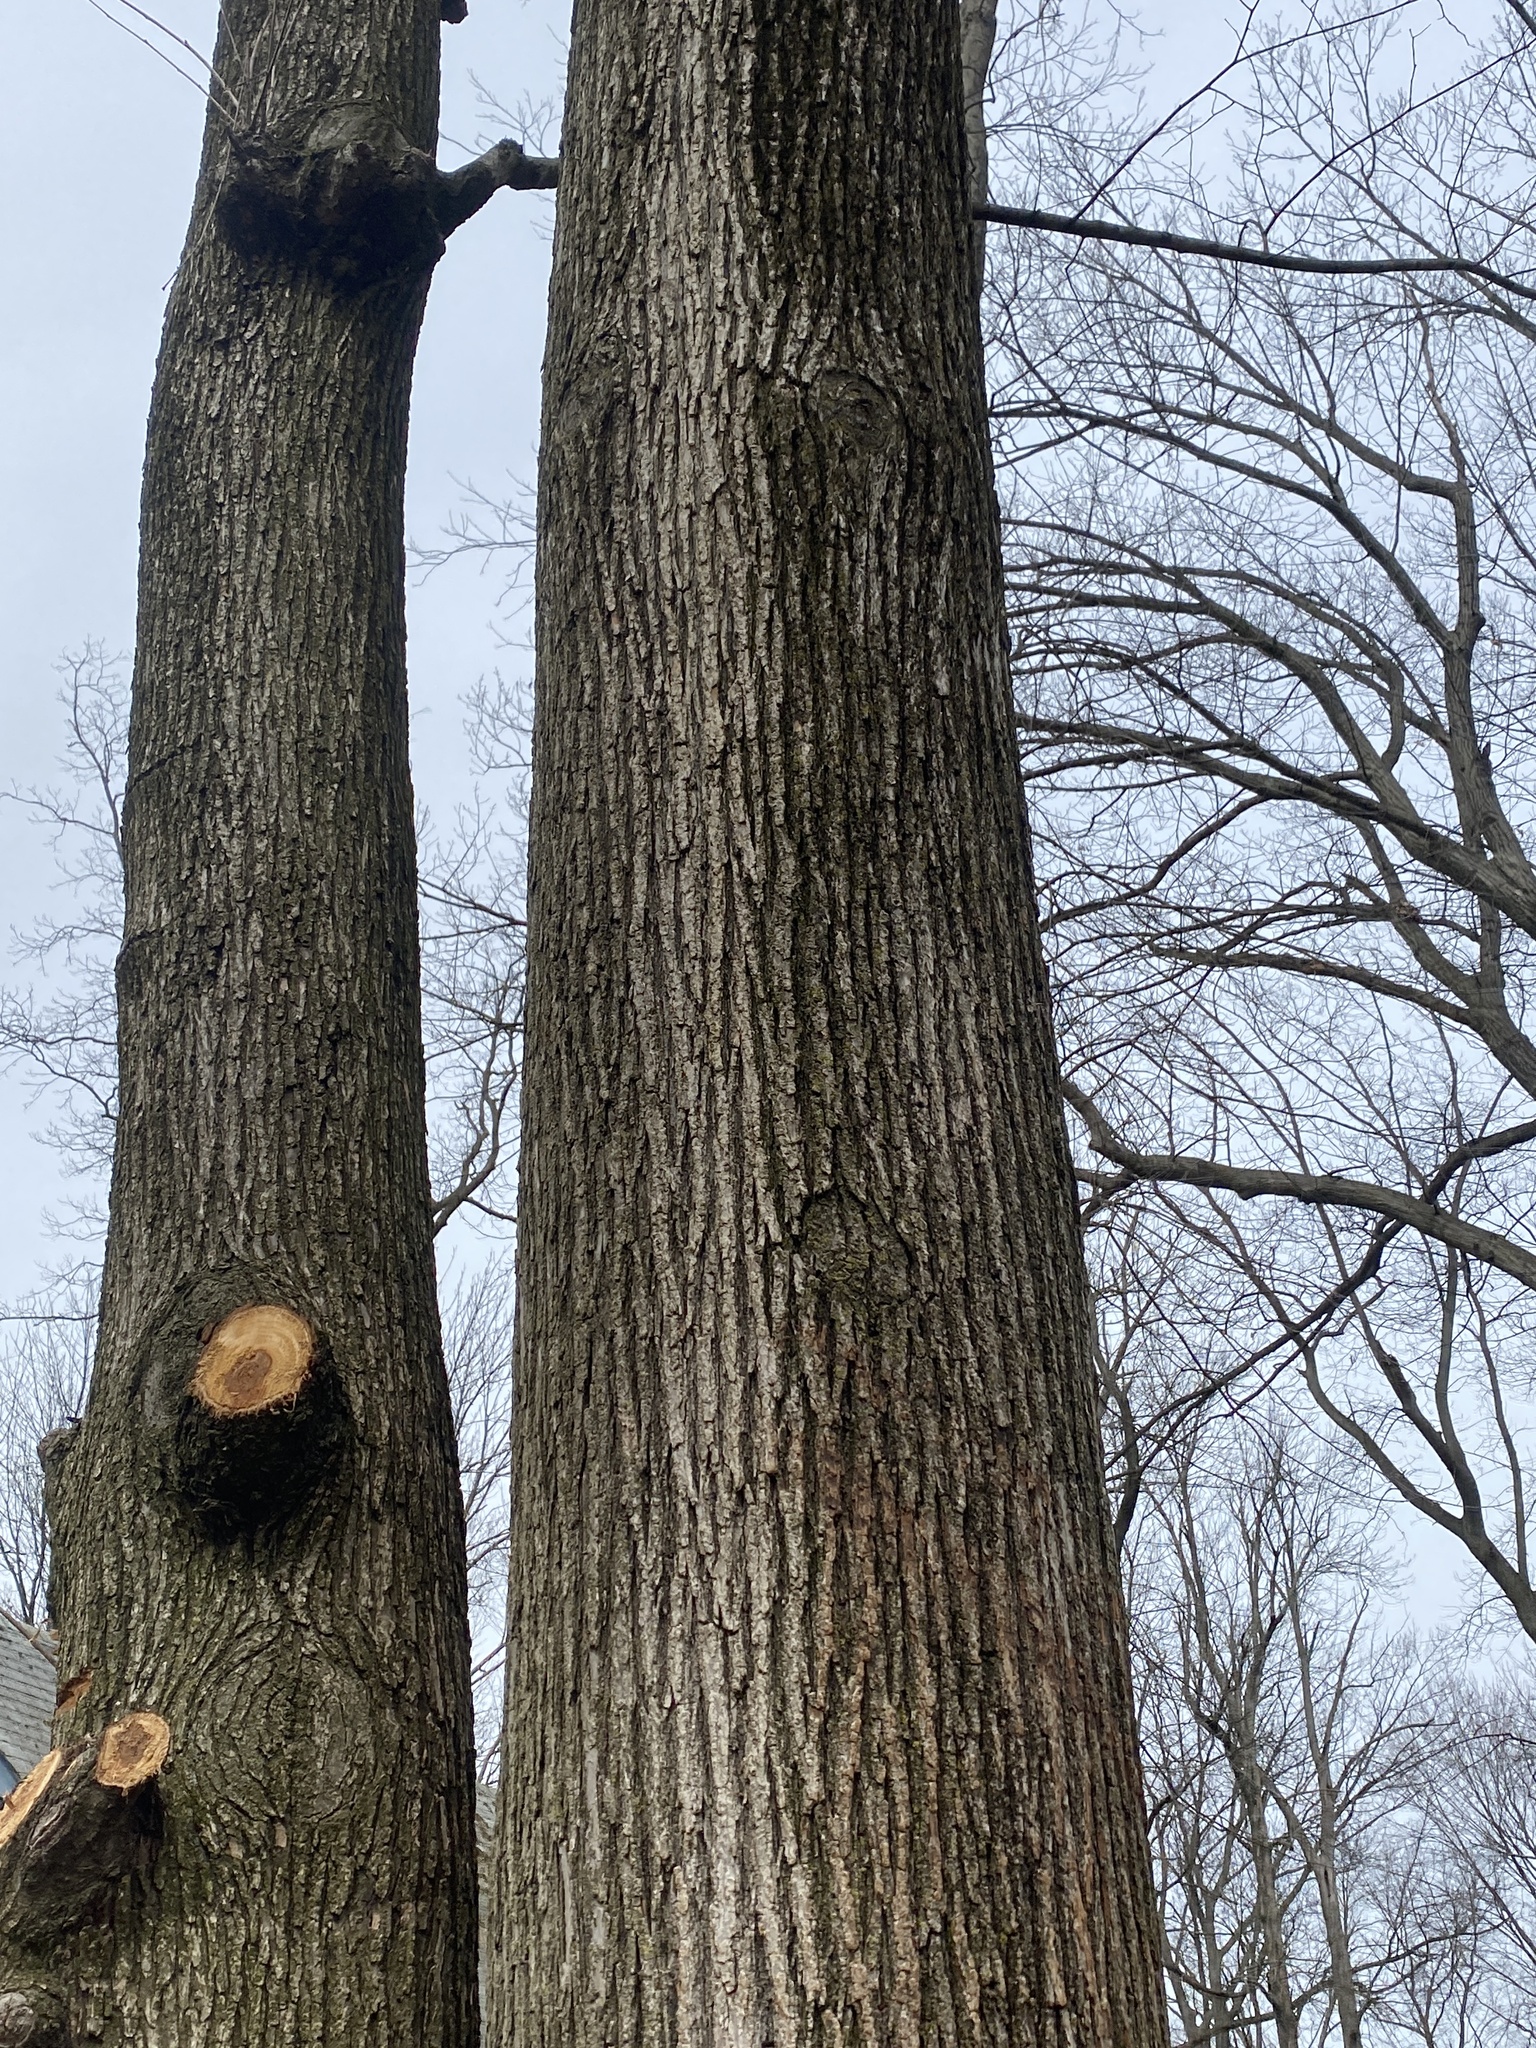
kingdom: Animalia
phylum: Arthropoda
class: Insecta
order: Coleoptera
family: Buprestidae
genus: Agrilus
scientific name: Agrilus planipennis
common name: Emerald ash borer
